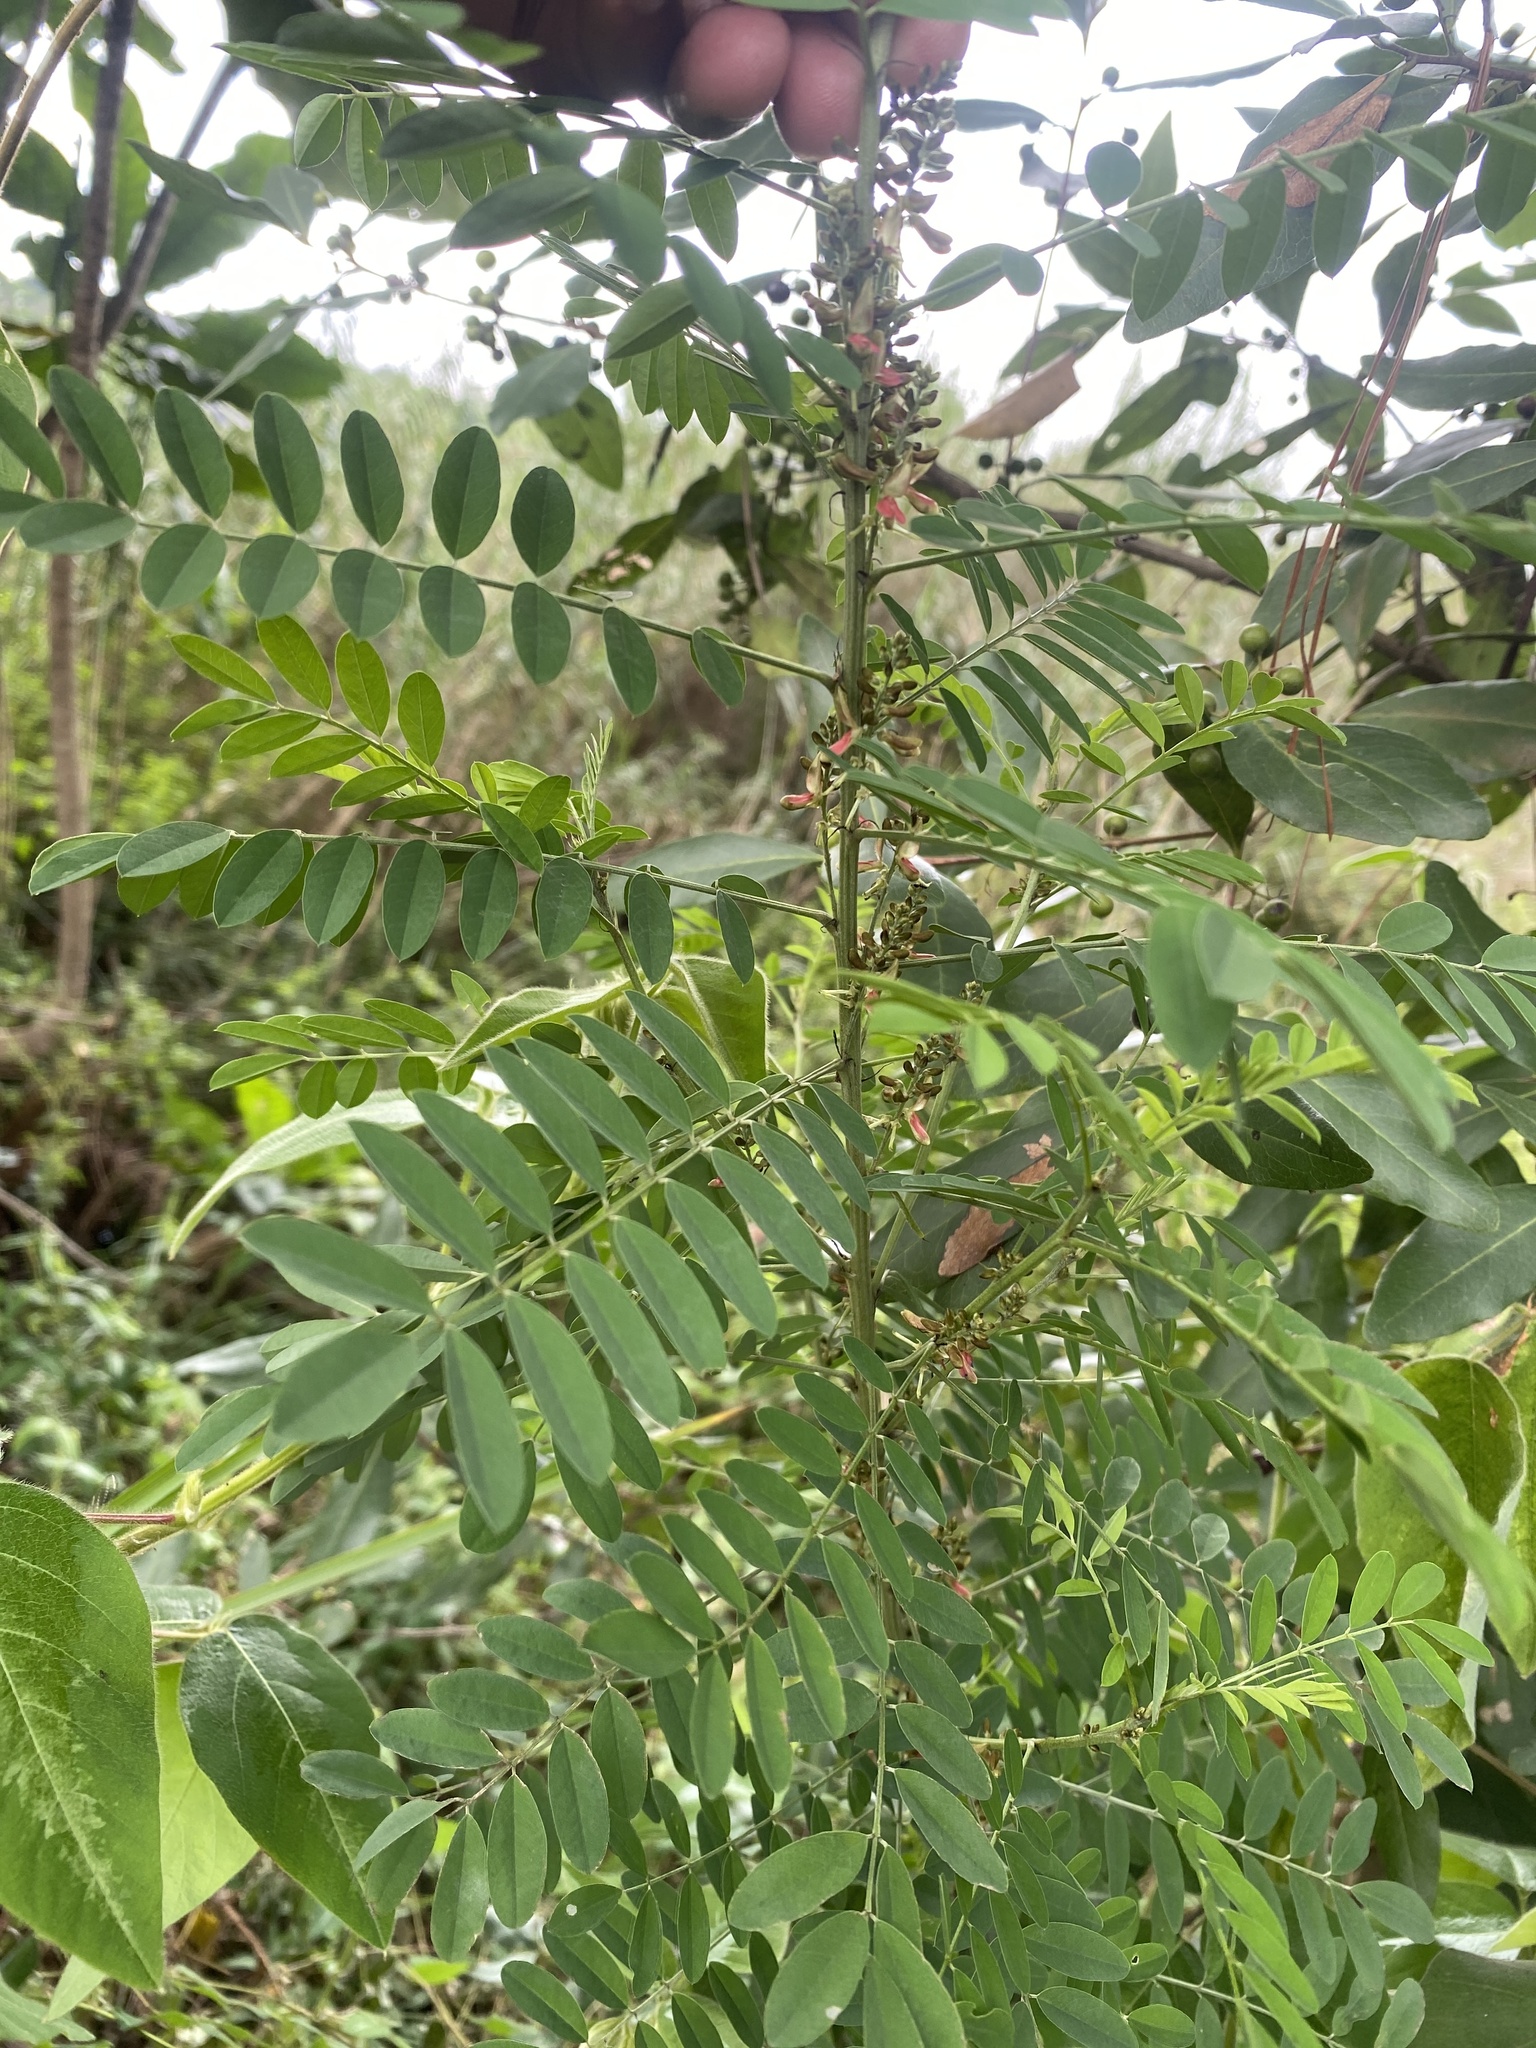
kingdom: Plantae
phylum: Tracheophyta
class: Magnoliopsida
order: Fabales
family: Fabaceae
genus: Indigofera
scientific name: Indigofera arrecta
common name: Bengal indigo
